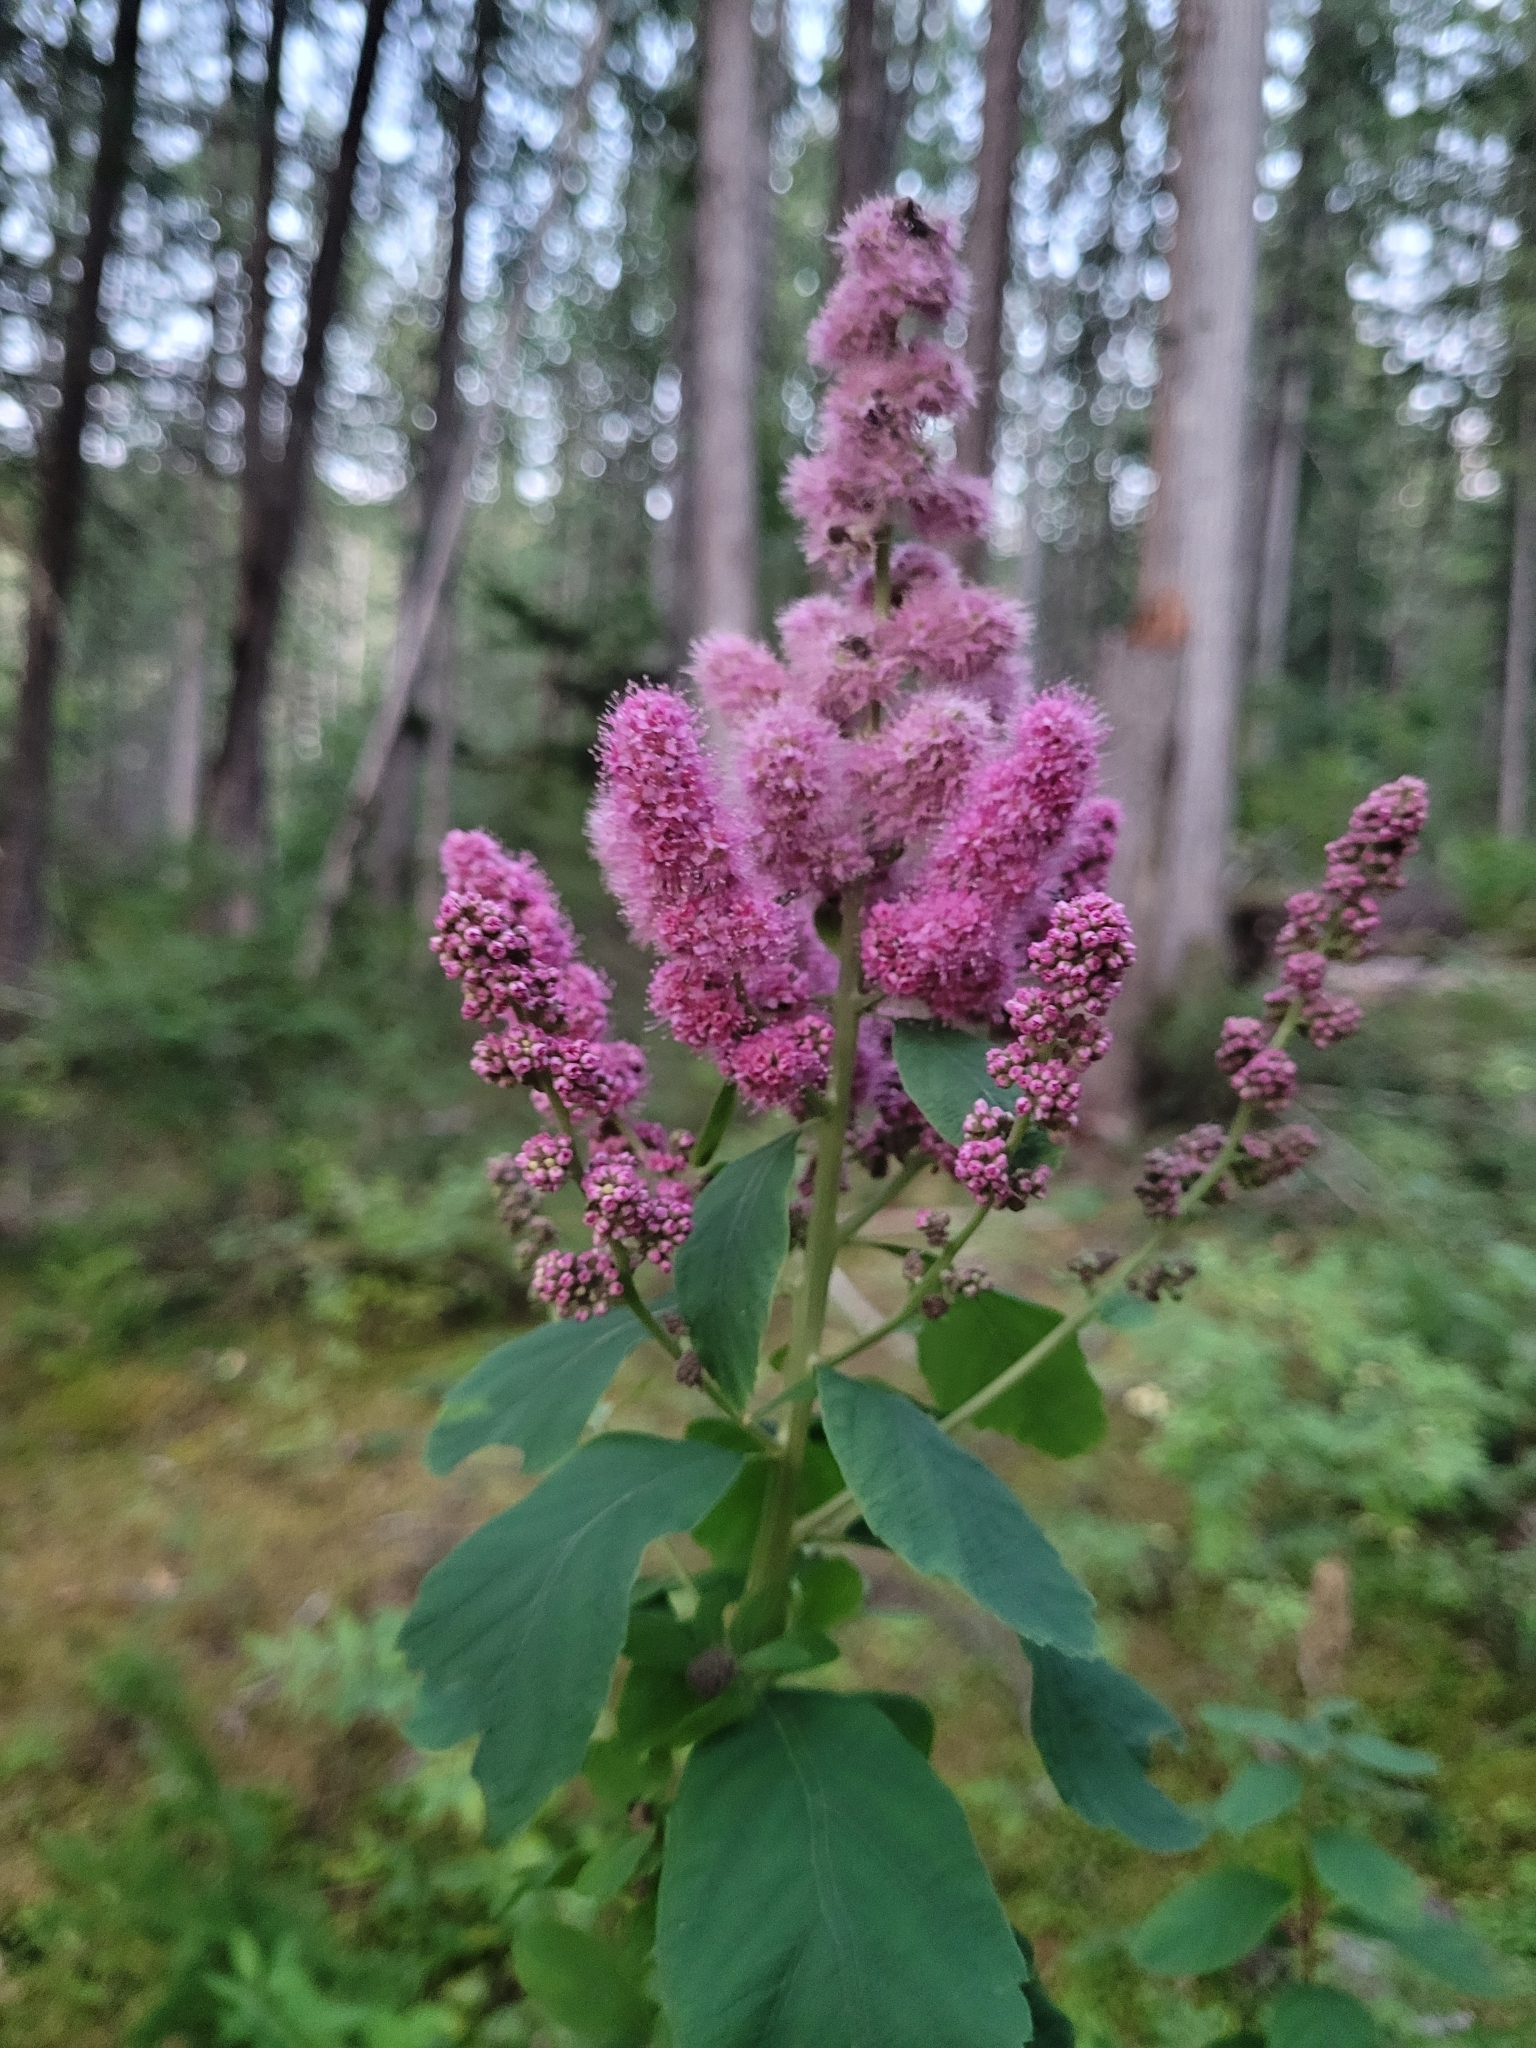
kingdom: Plantae
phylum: Tracheophyta
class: Magnoliopsida
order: Rosales
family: Rosaceae
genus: Spiraea
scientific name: Spiraea douglasii
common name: Steeplebush
